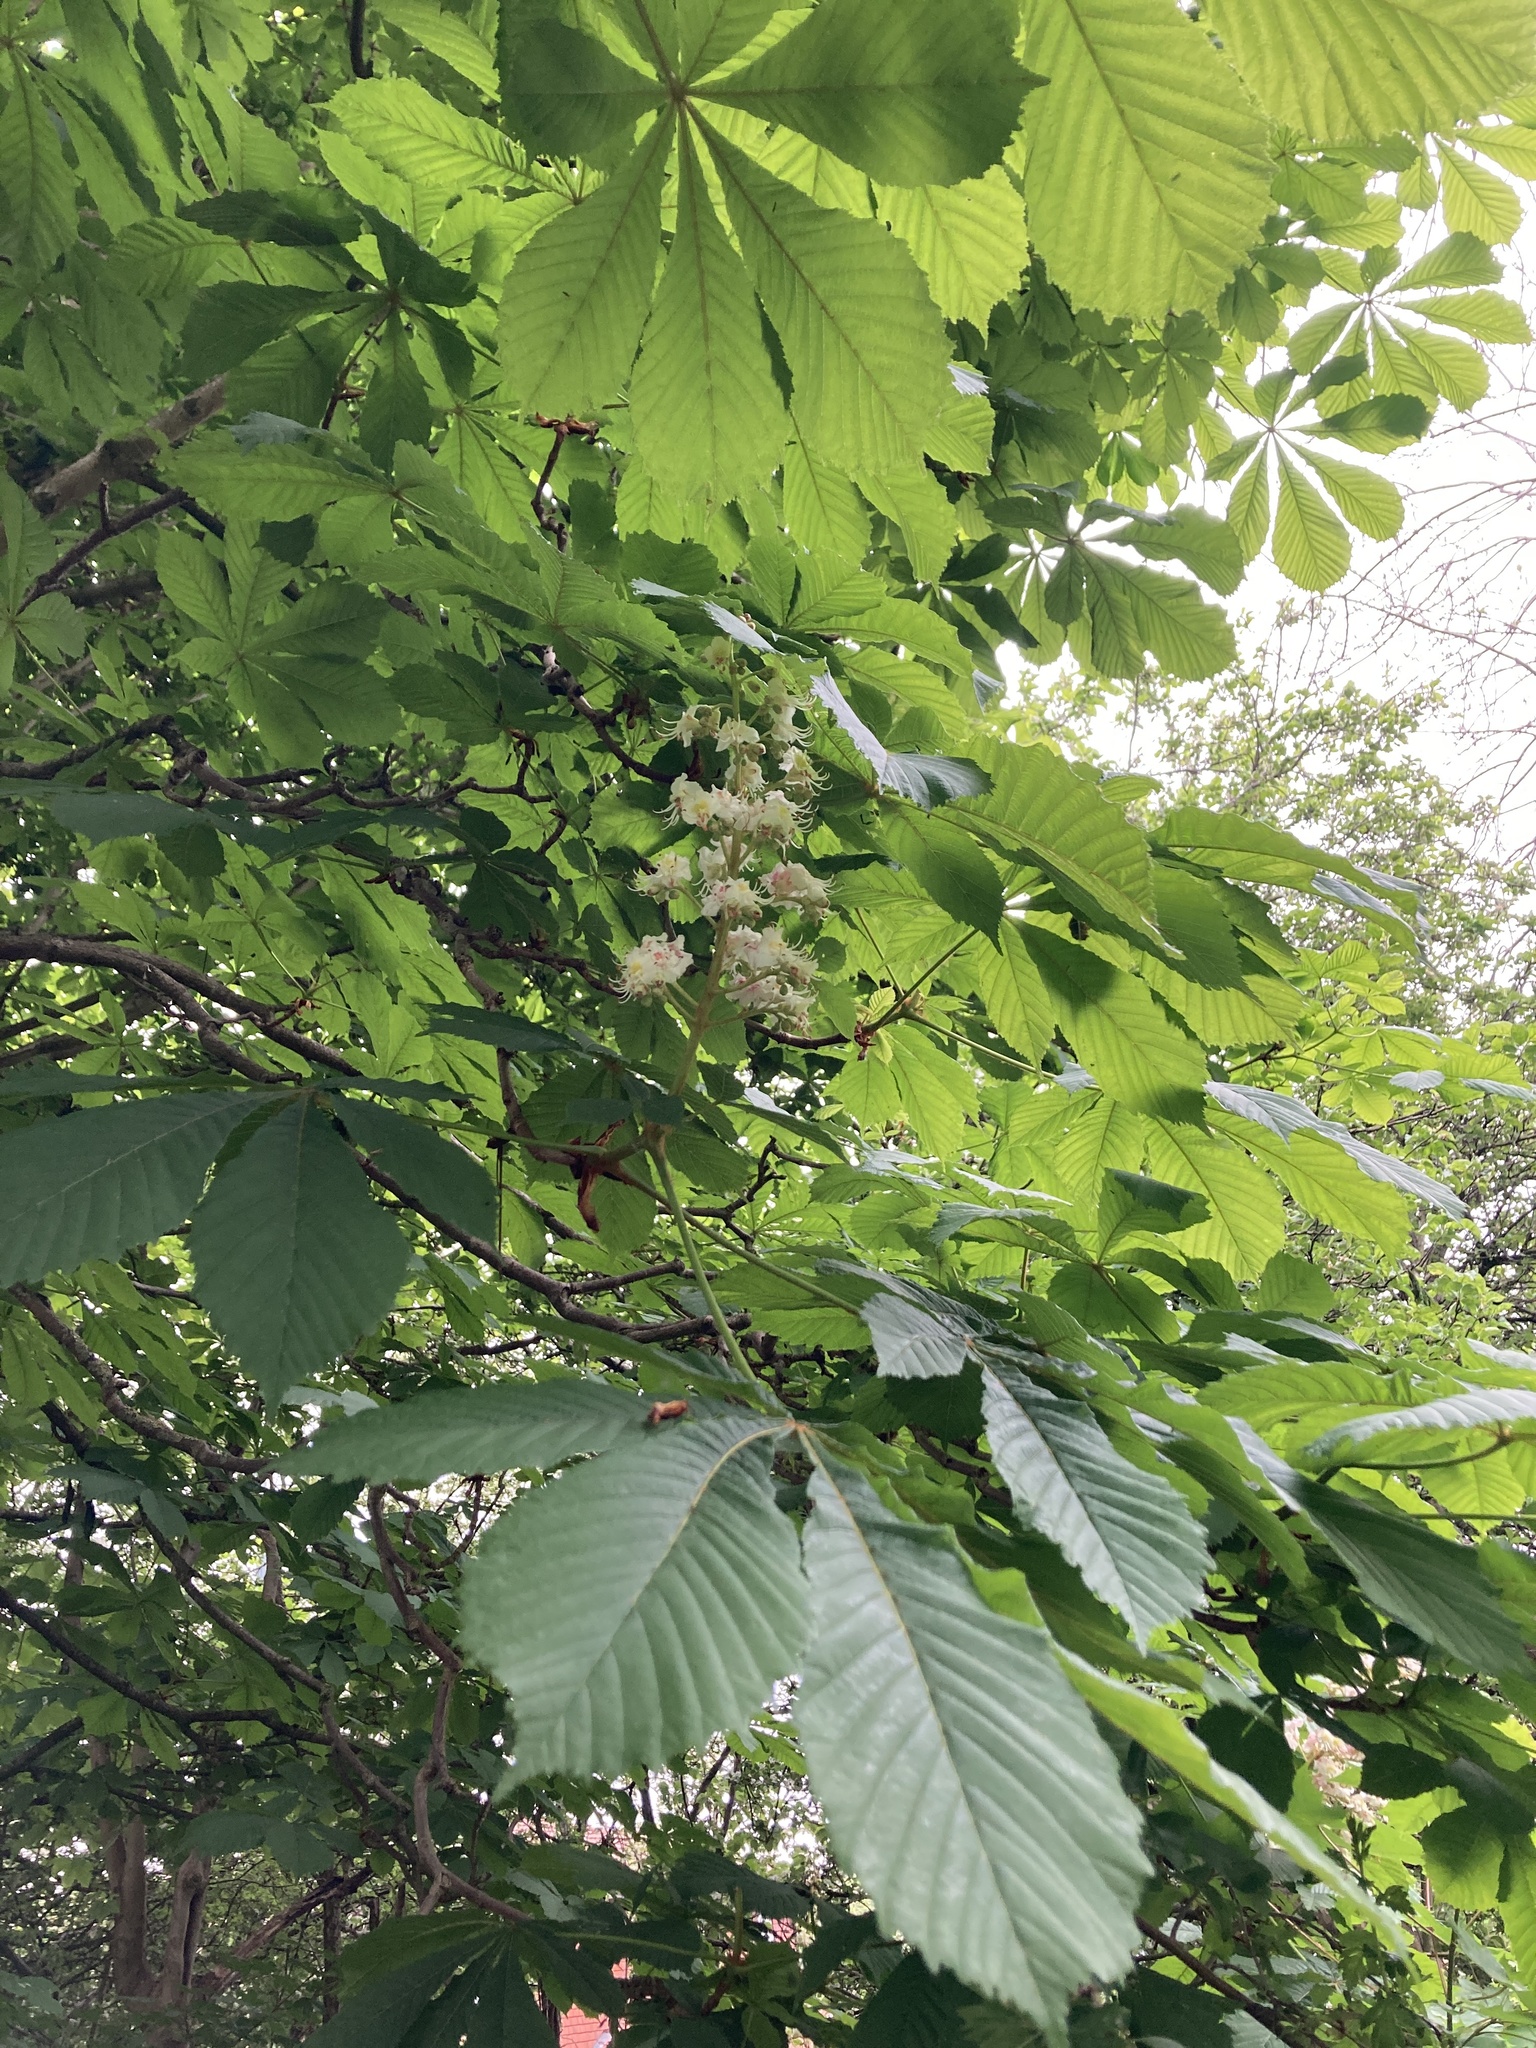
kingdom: Plantae
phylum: Tracheophyta
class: Magnoliopsida
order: Sapindales
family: Sapindaceae
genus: Aesculus
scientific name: Aesculus hippocastanum
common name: Horse-chestnut
